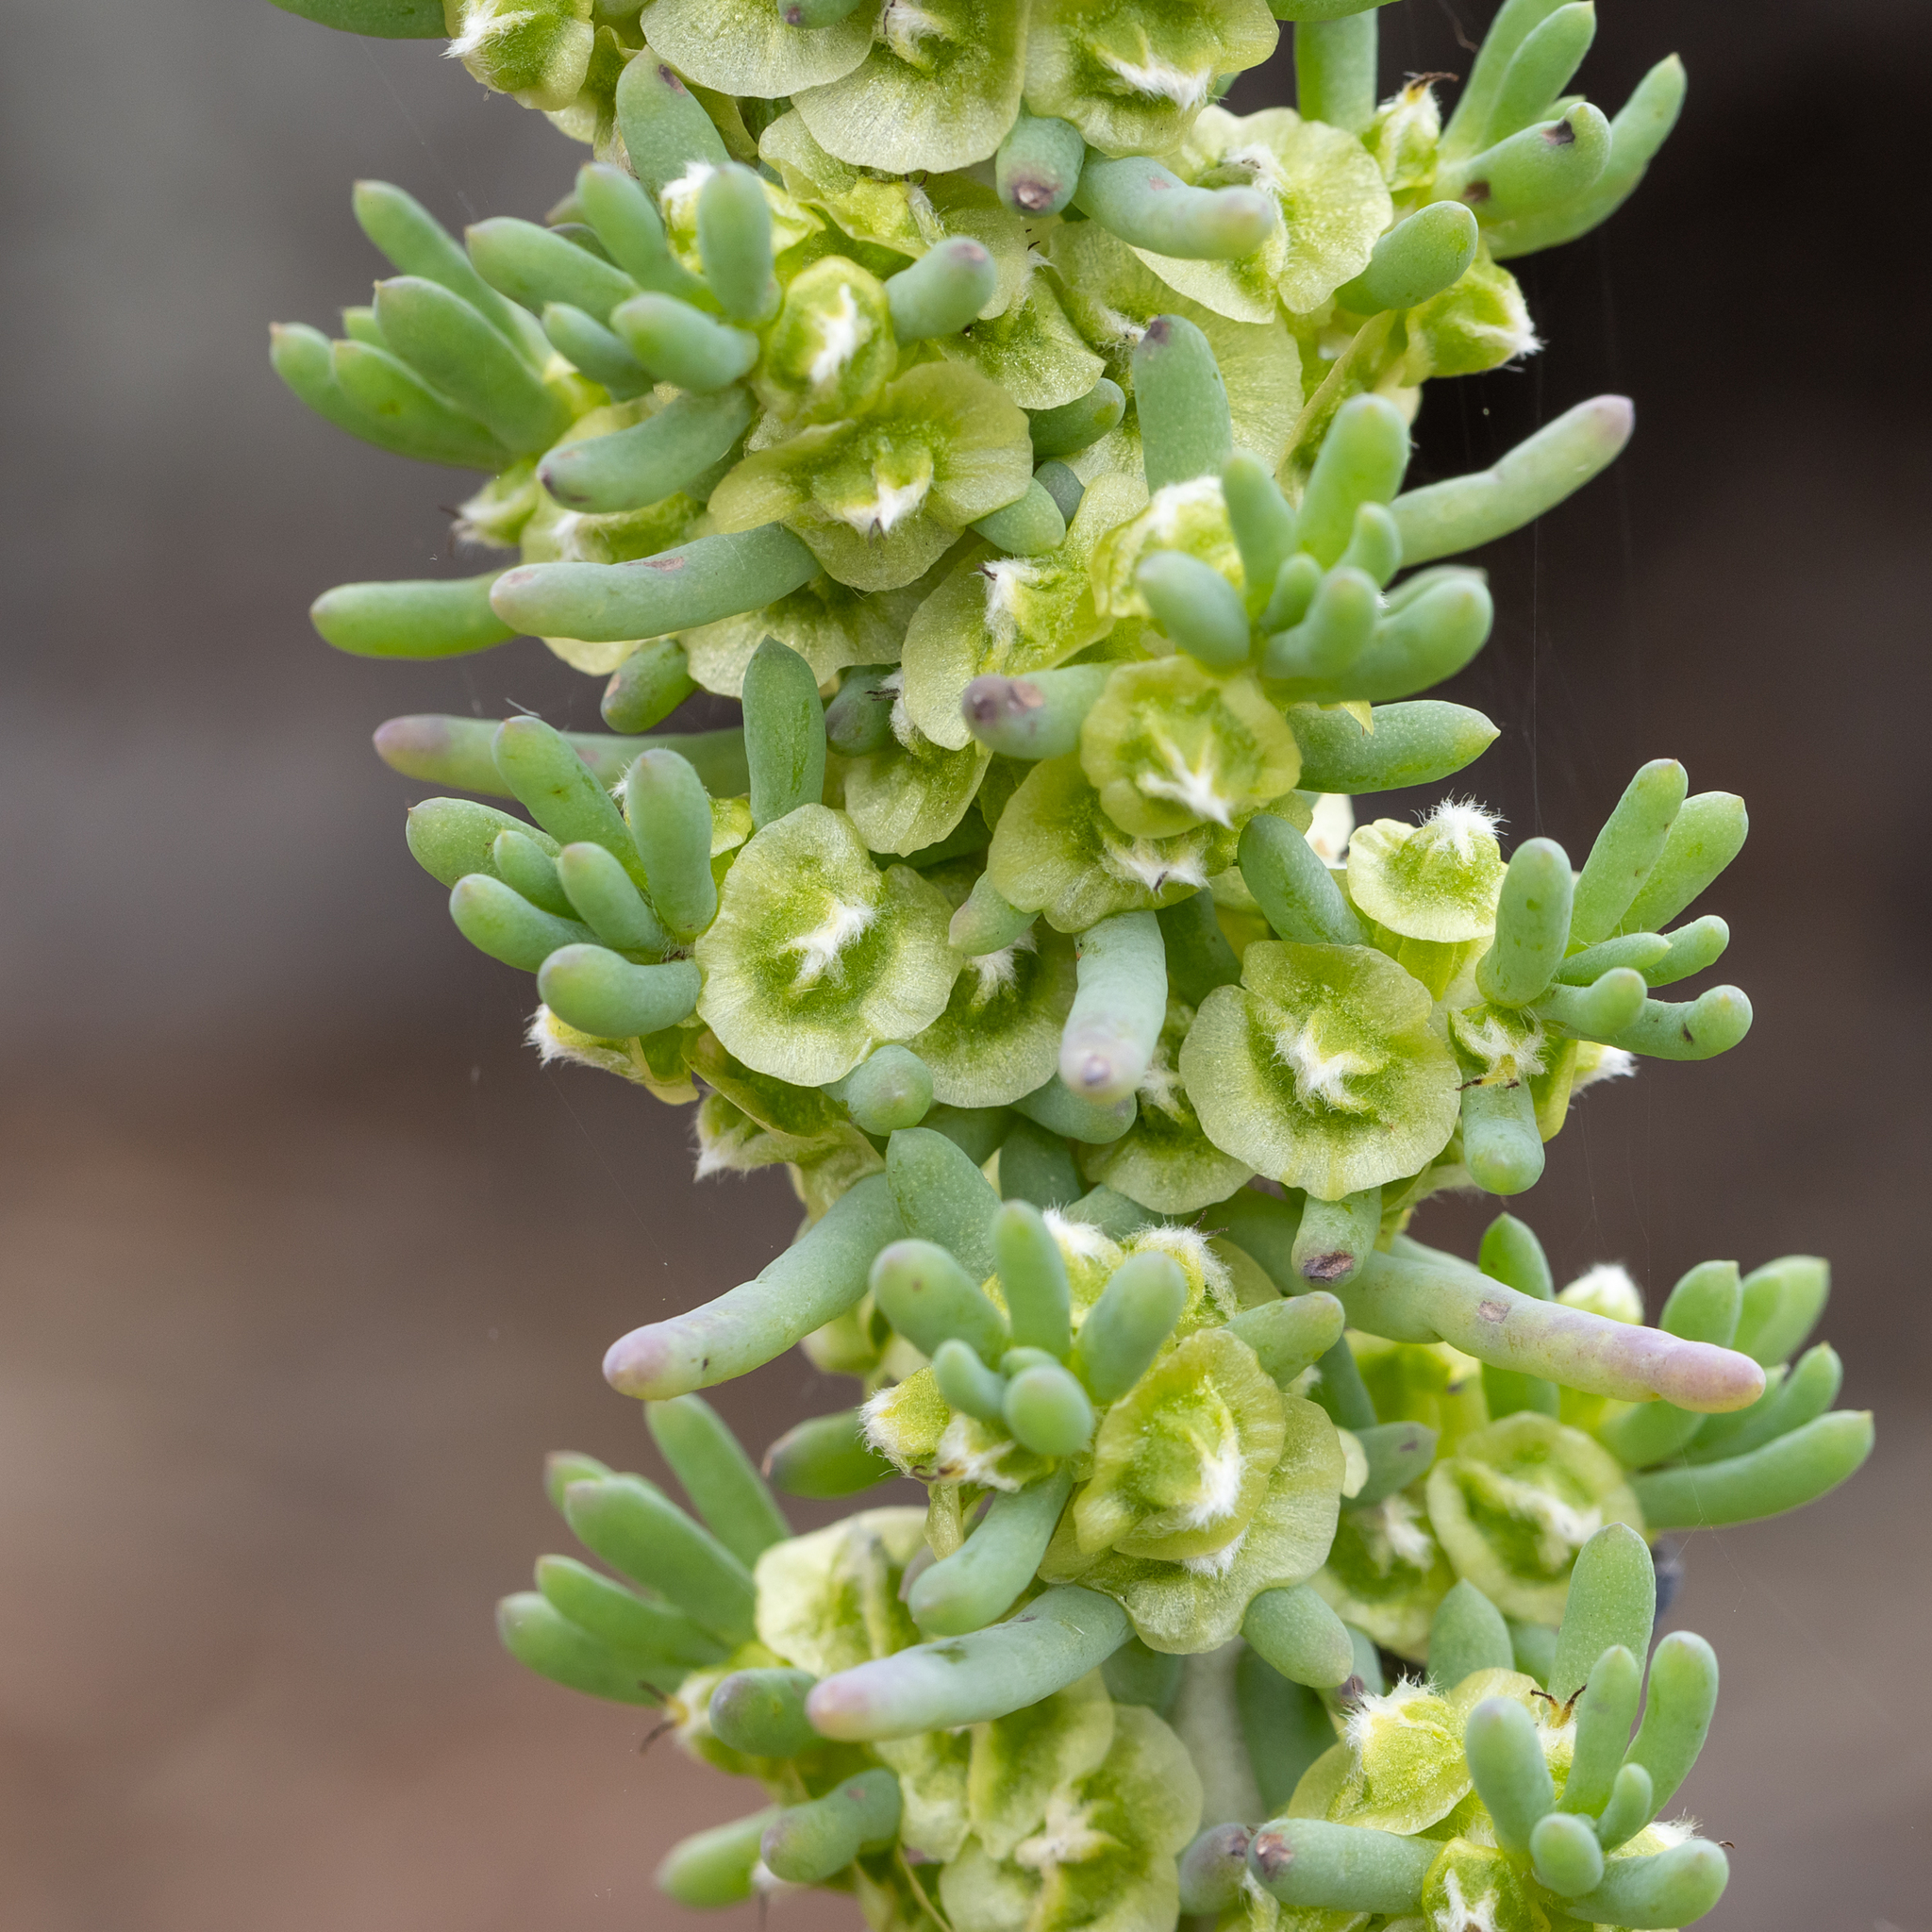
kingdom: Plantae
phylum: Tracheophyta
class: Magnoliopsida
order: Caryophyllales
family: Amaranthaceae
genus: Maireana
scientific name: Maireana pentatropis
